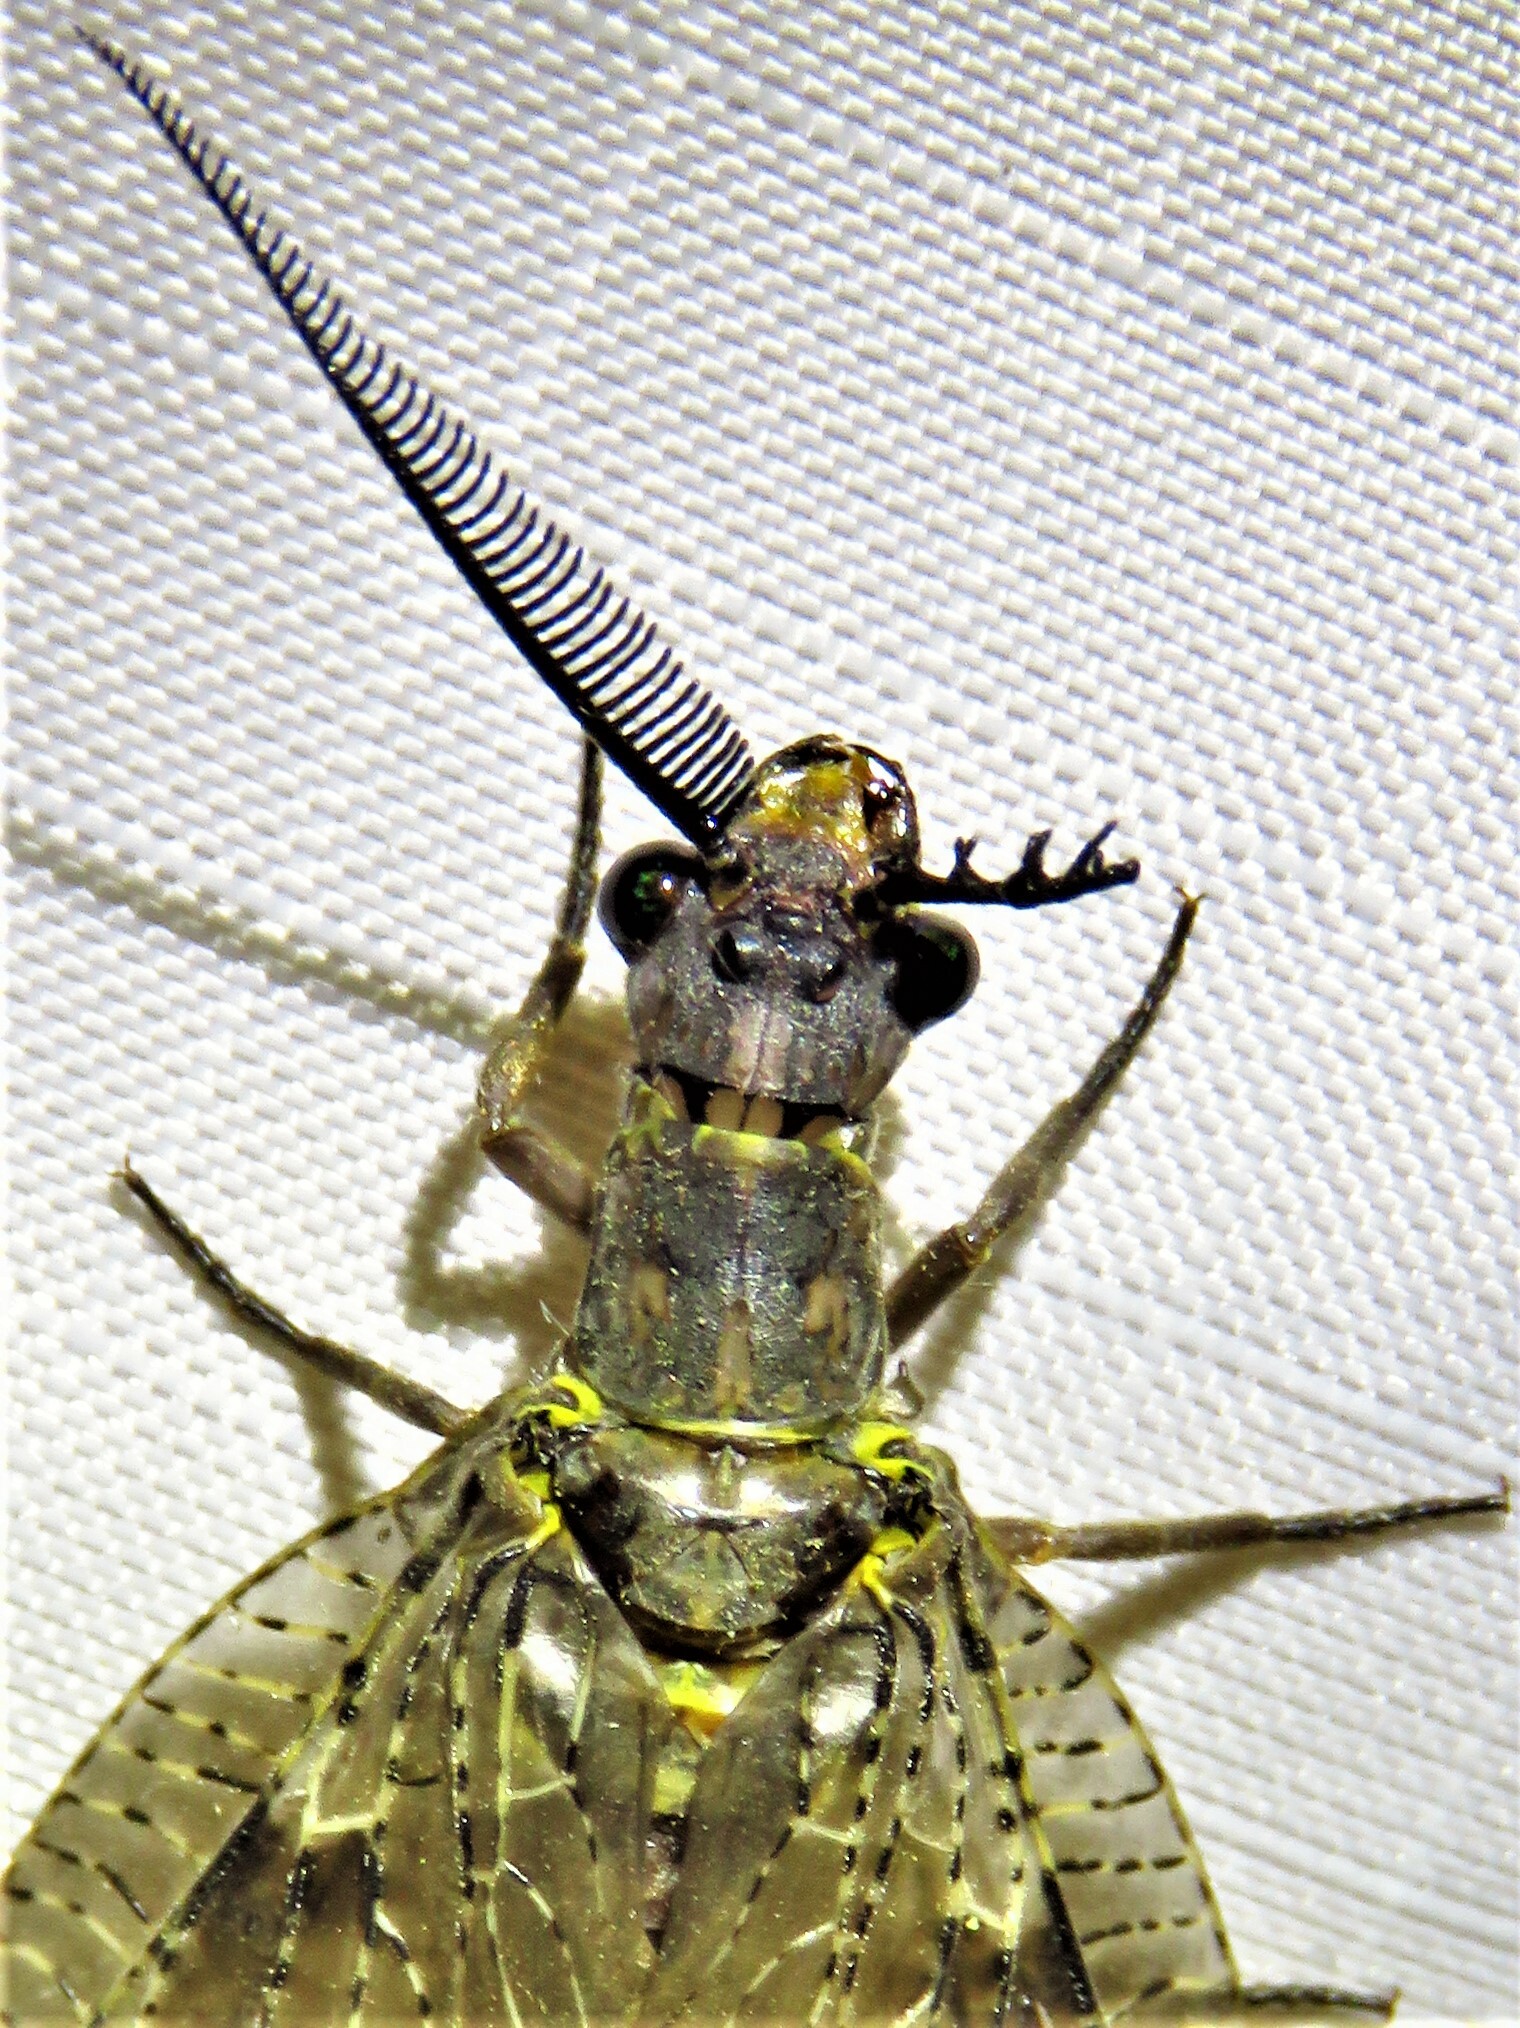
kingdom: Animalia
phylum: Arthropoda
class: Insecta
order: Megaloptera
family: Corydalidae
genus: Chauliodes
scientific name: Chauliodes pectinicornis
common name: Summer fishfly
